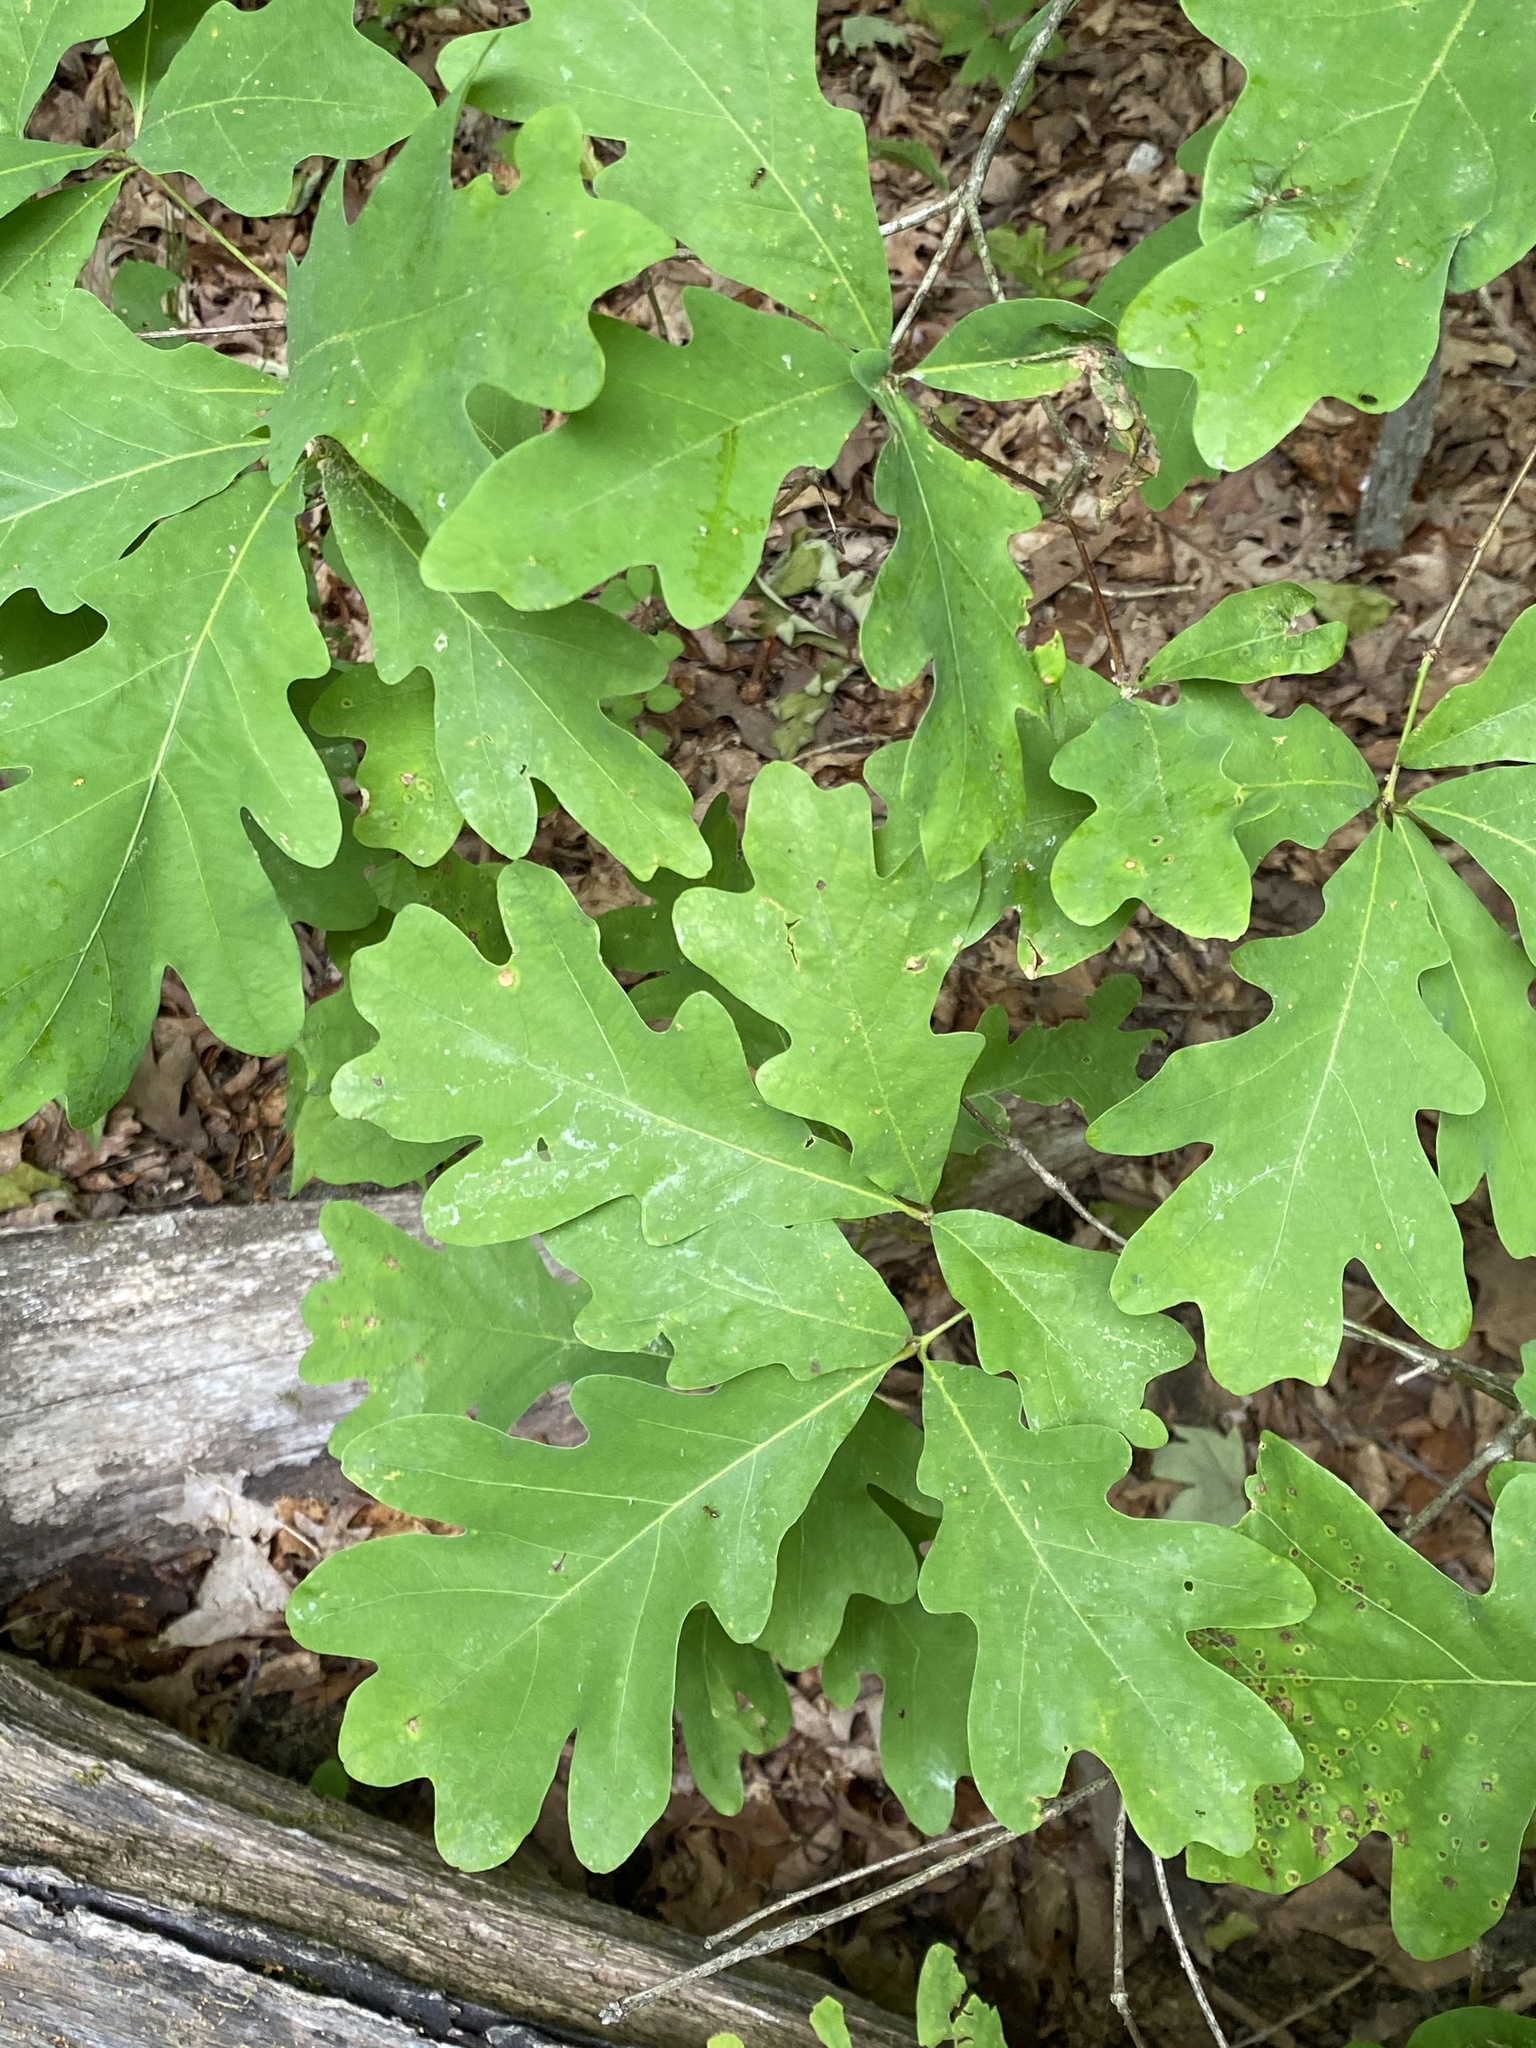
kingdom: Plantae
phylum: Tracheophyta
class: Magnoliopsida
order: Fagales
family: Fagaceae
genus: Quercus
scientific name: Quercus alba
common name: White oak
